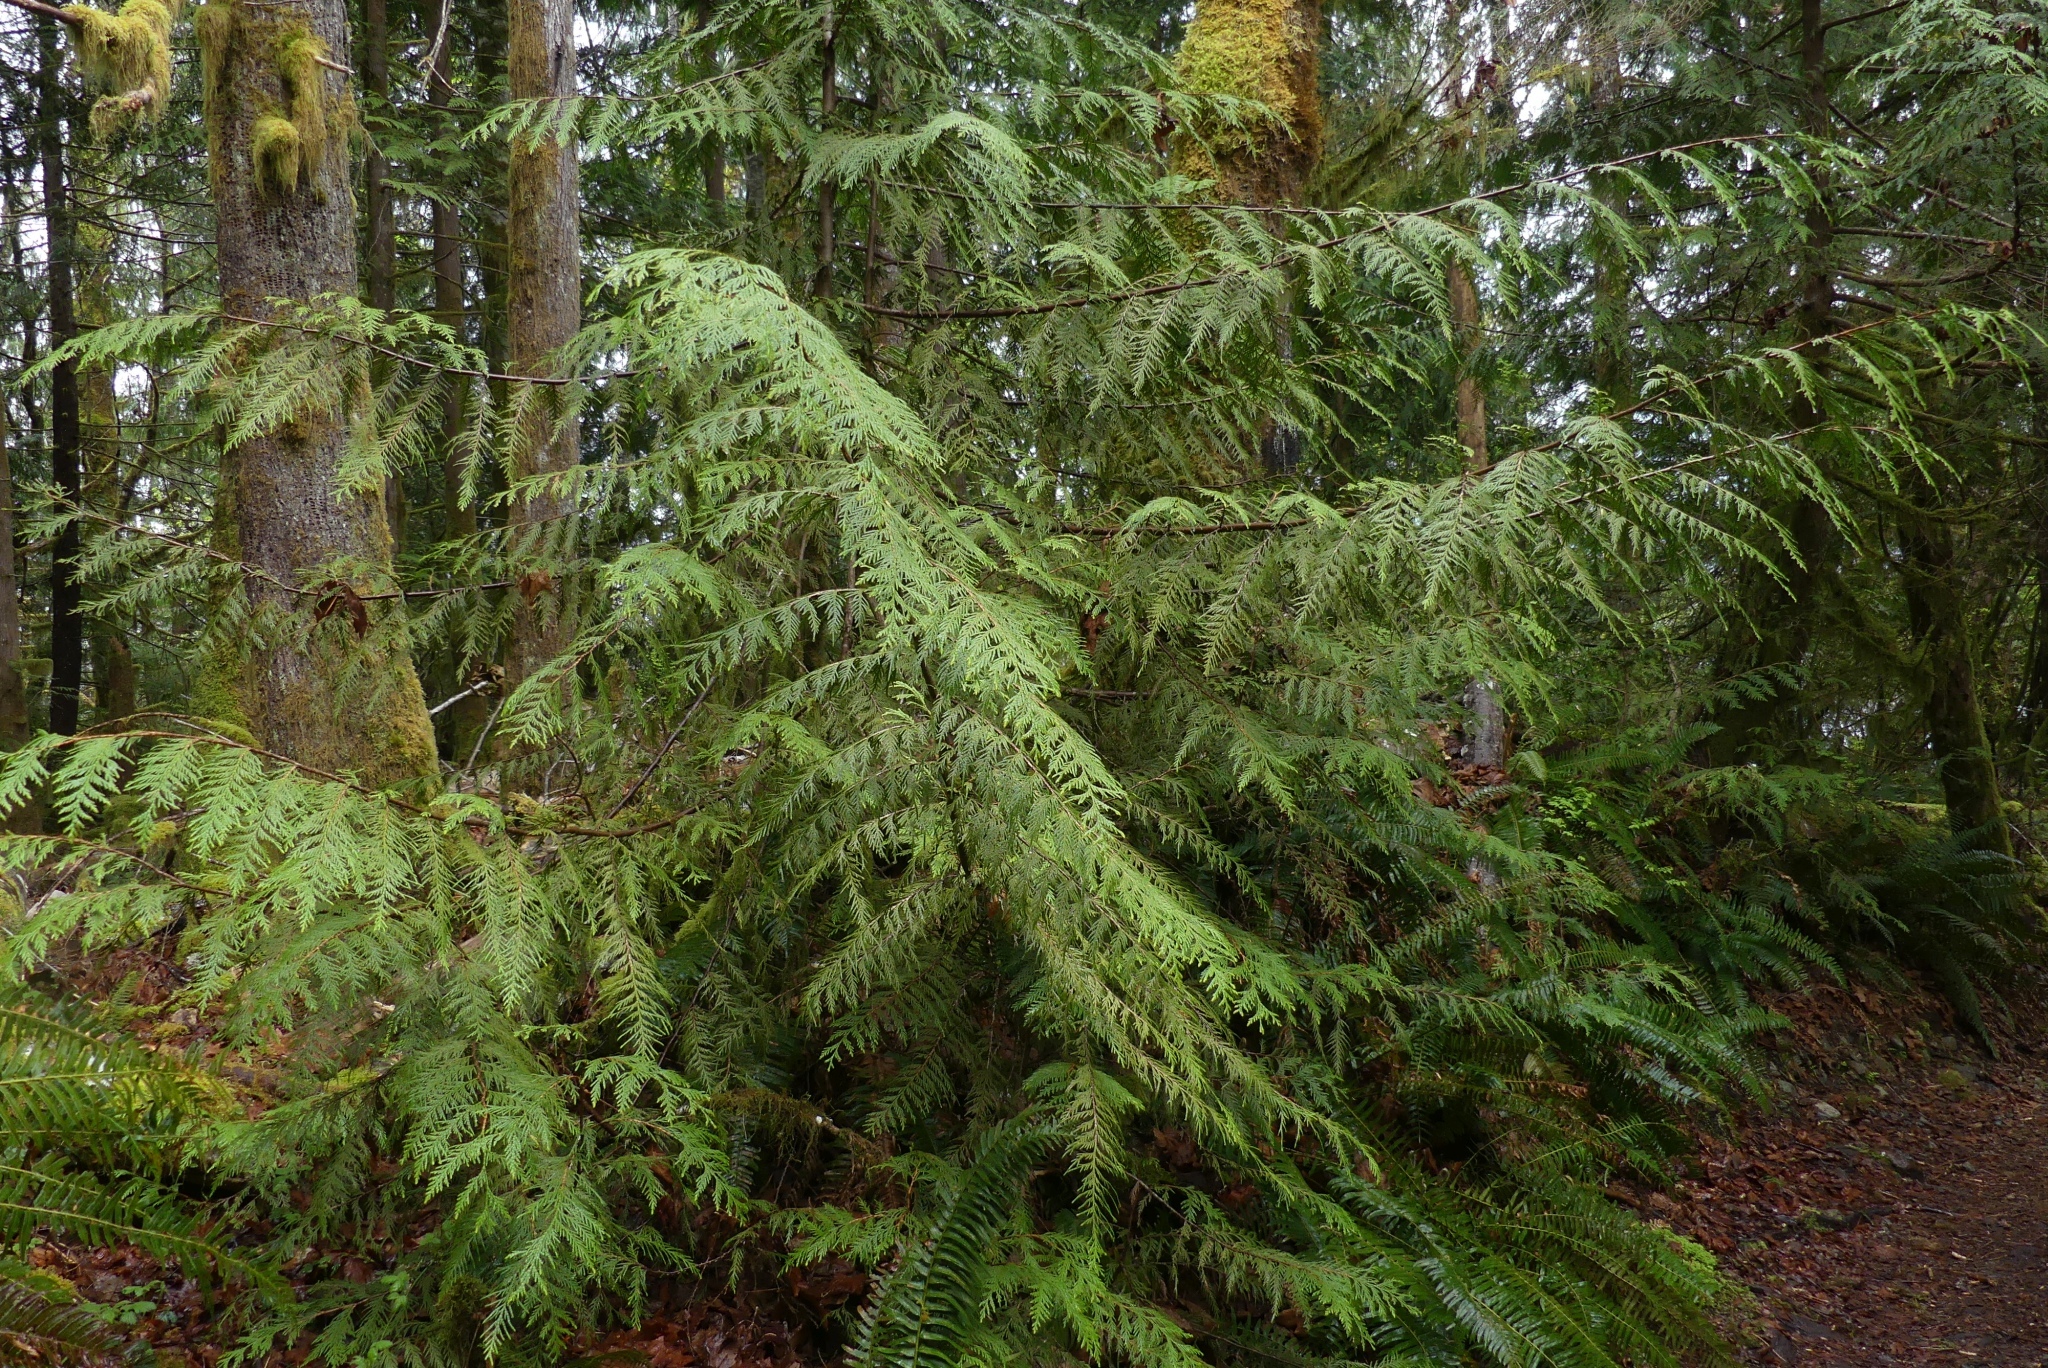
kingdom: Plantae
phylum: Tracheophyta
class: Pinopsida
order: Pinales
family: Cupressaceae
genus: Thuja
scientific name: Thuja plicata
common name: Western red-cedar
